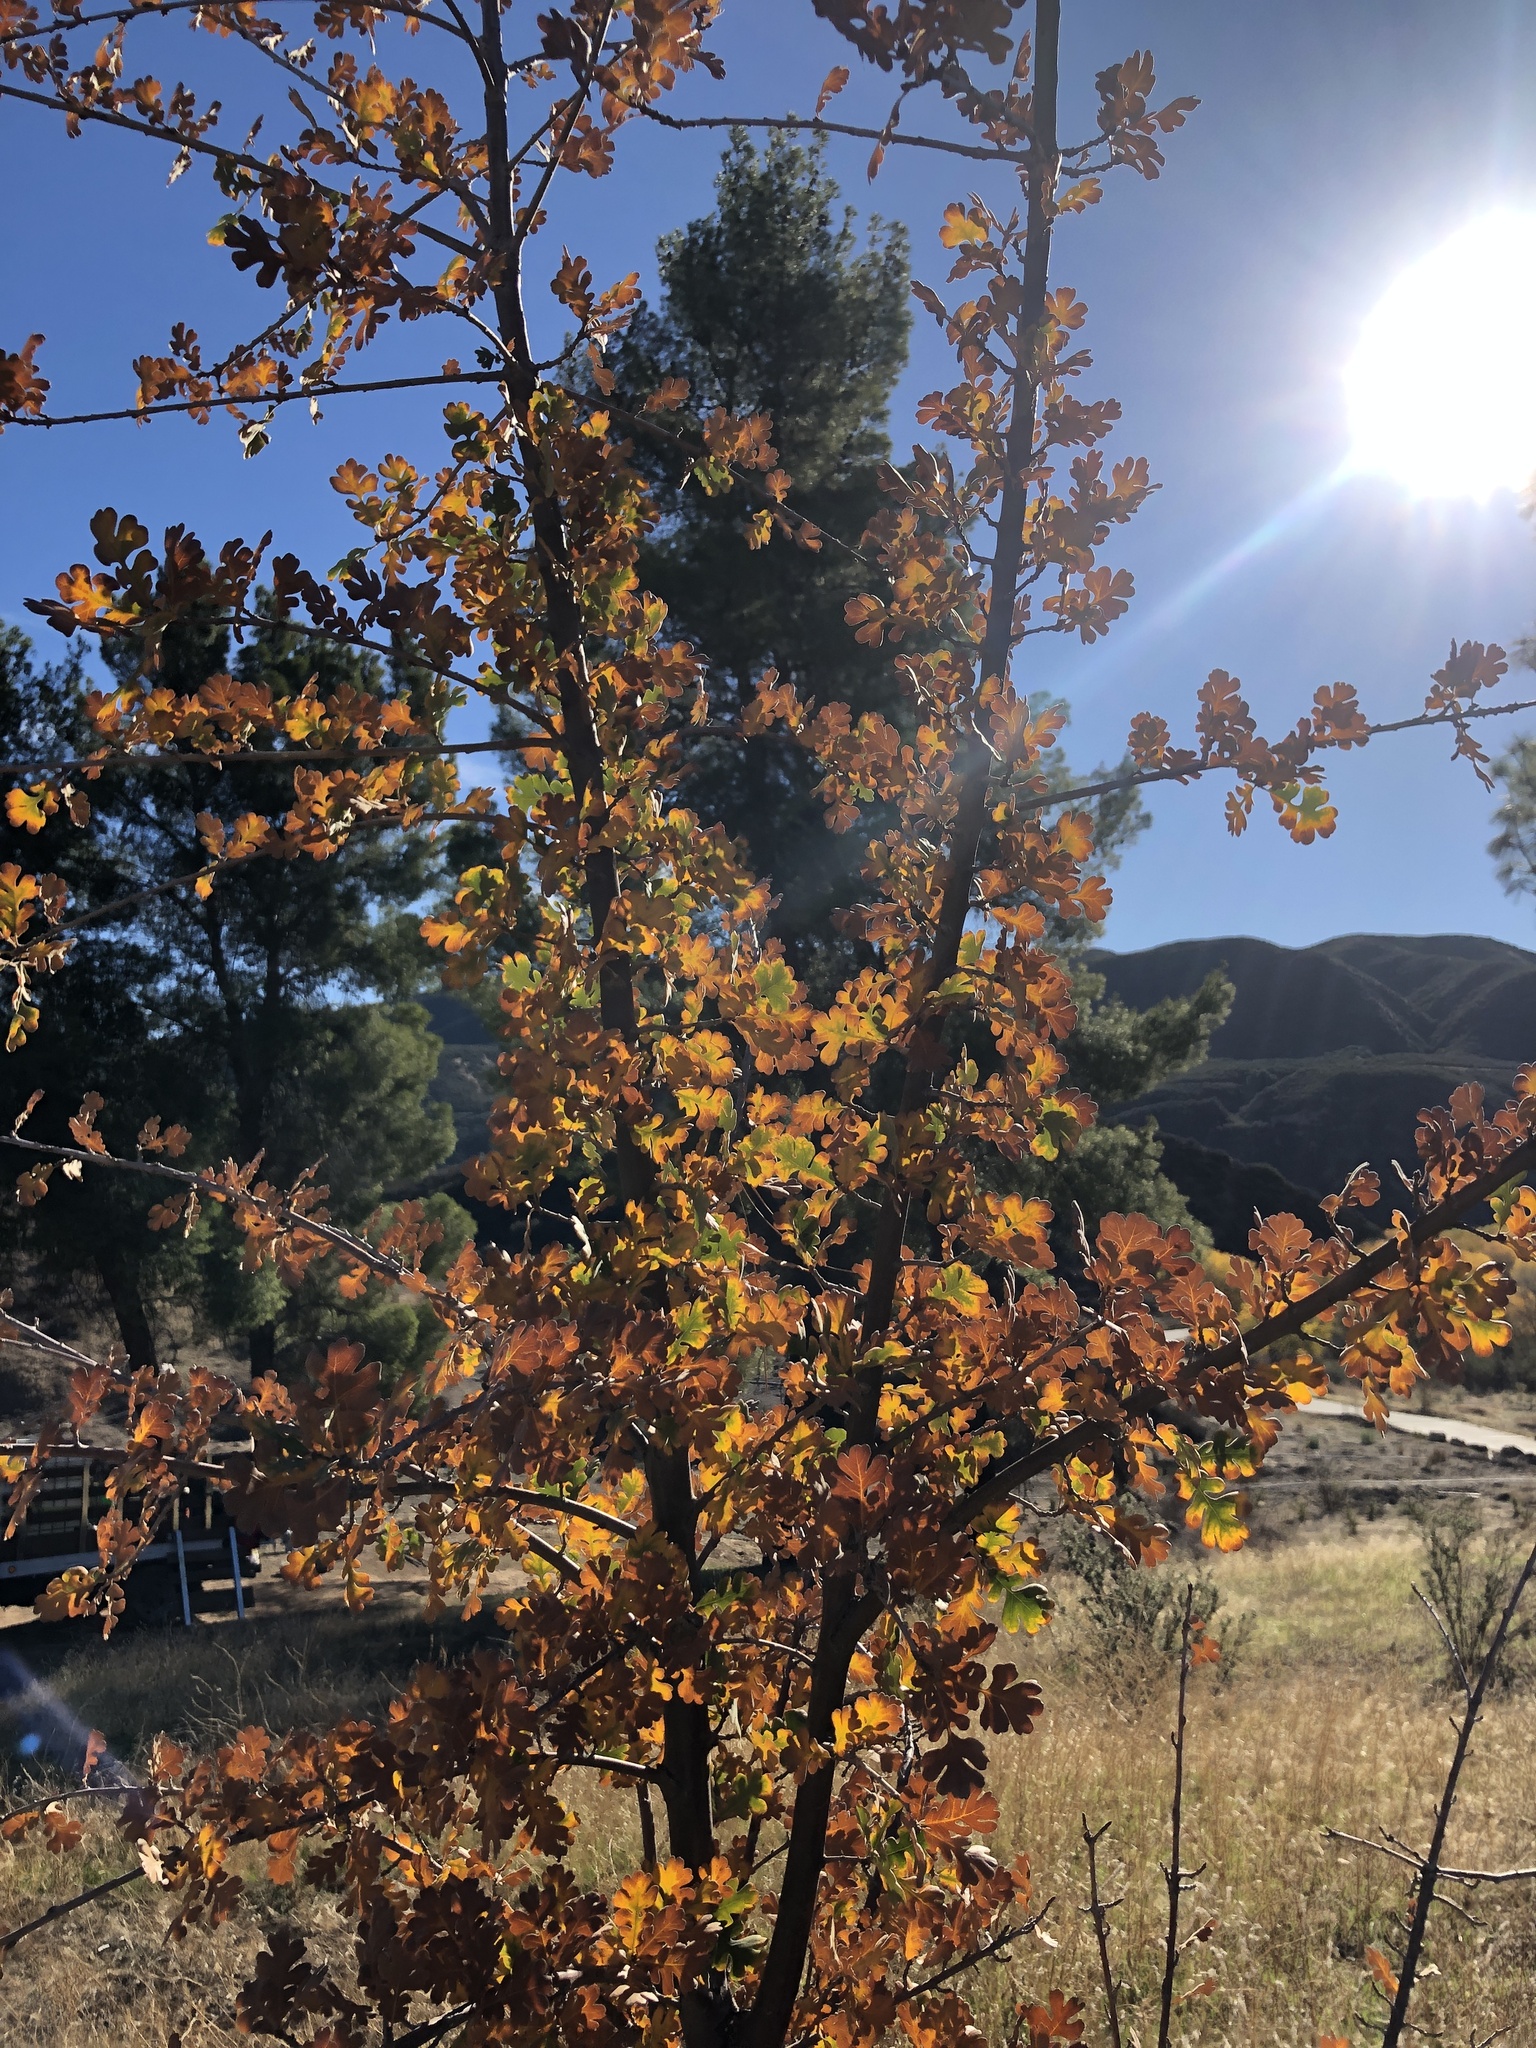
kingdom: Plantae
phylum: Tracheophyta
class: Magnoliopsida
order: Fagales
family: Fagaceae
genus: Quercus
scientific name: Quercus lobata
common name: Valley oak
